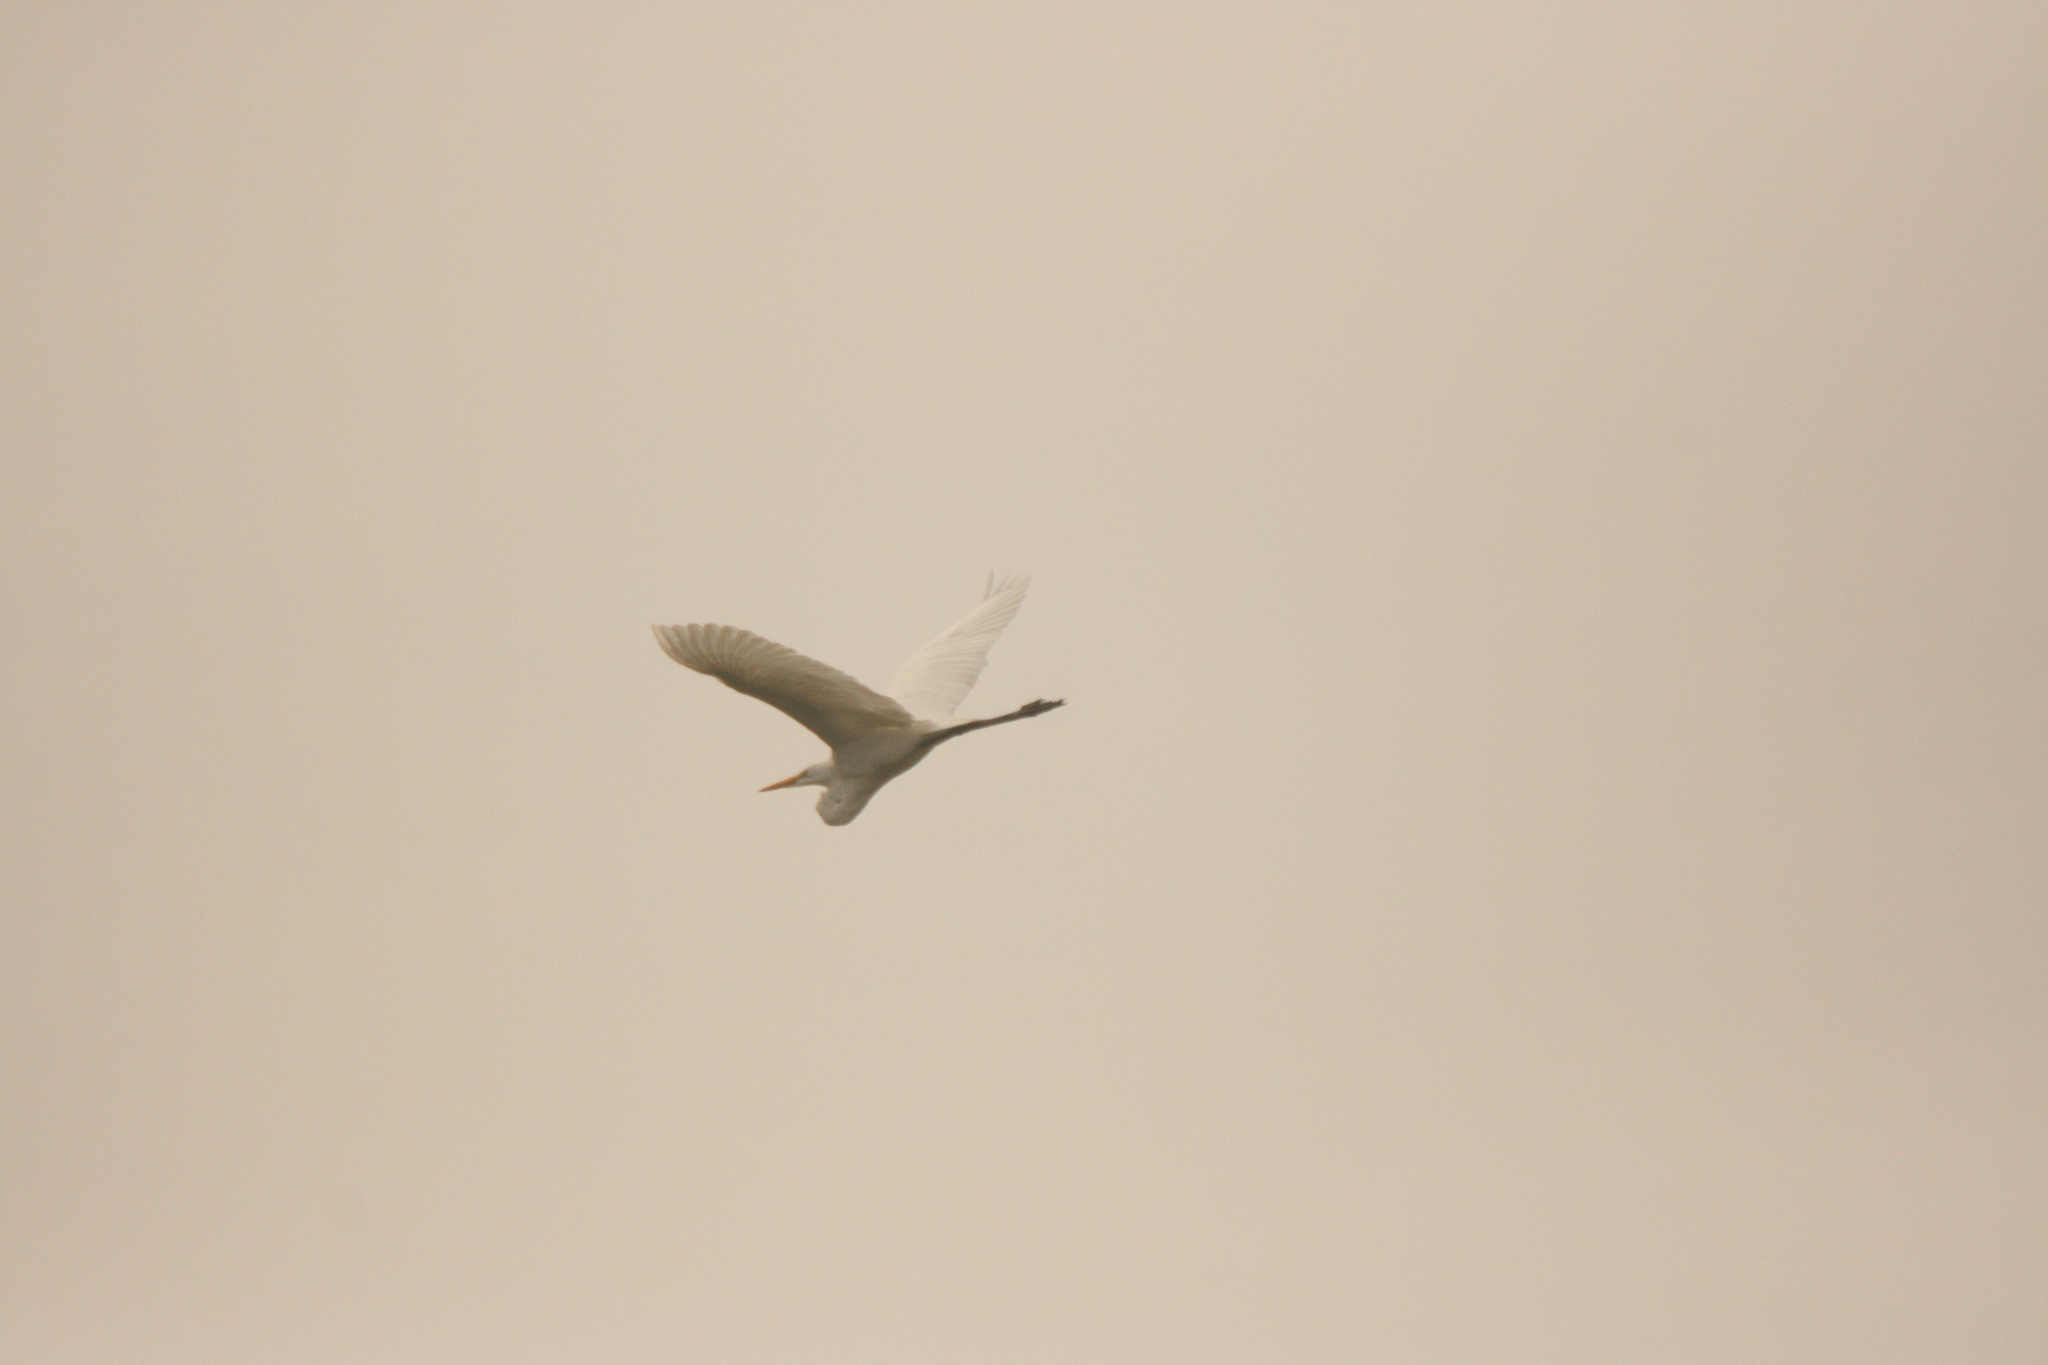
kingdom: Animalia
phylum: Chordata
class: Aves
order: Pelecaniformes
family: Ardeidae
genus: Ardea
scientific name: Ardea alba
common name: Great egret
